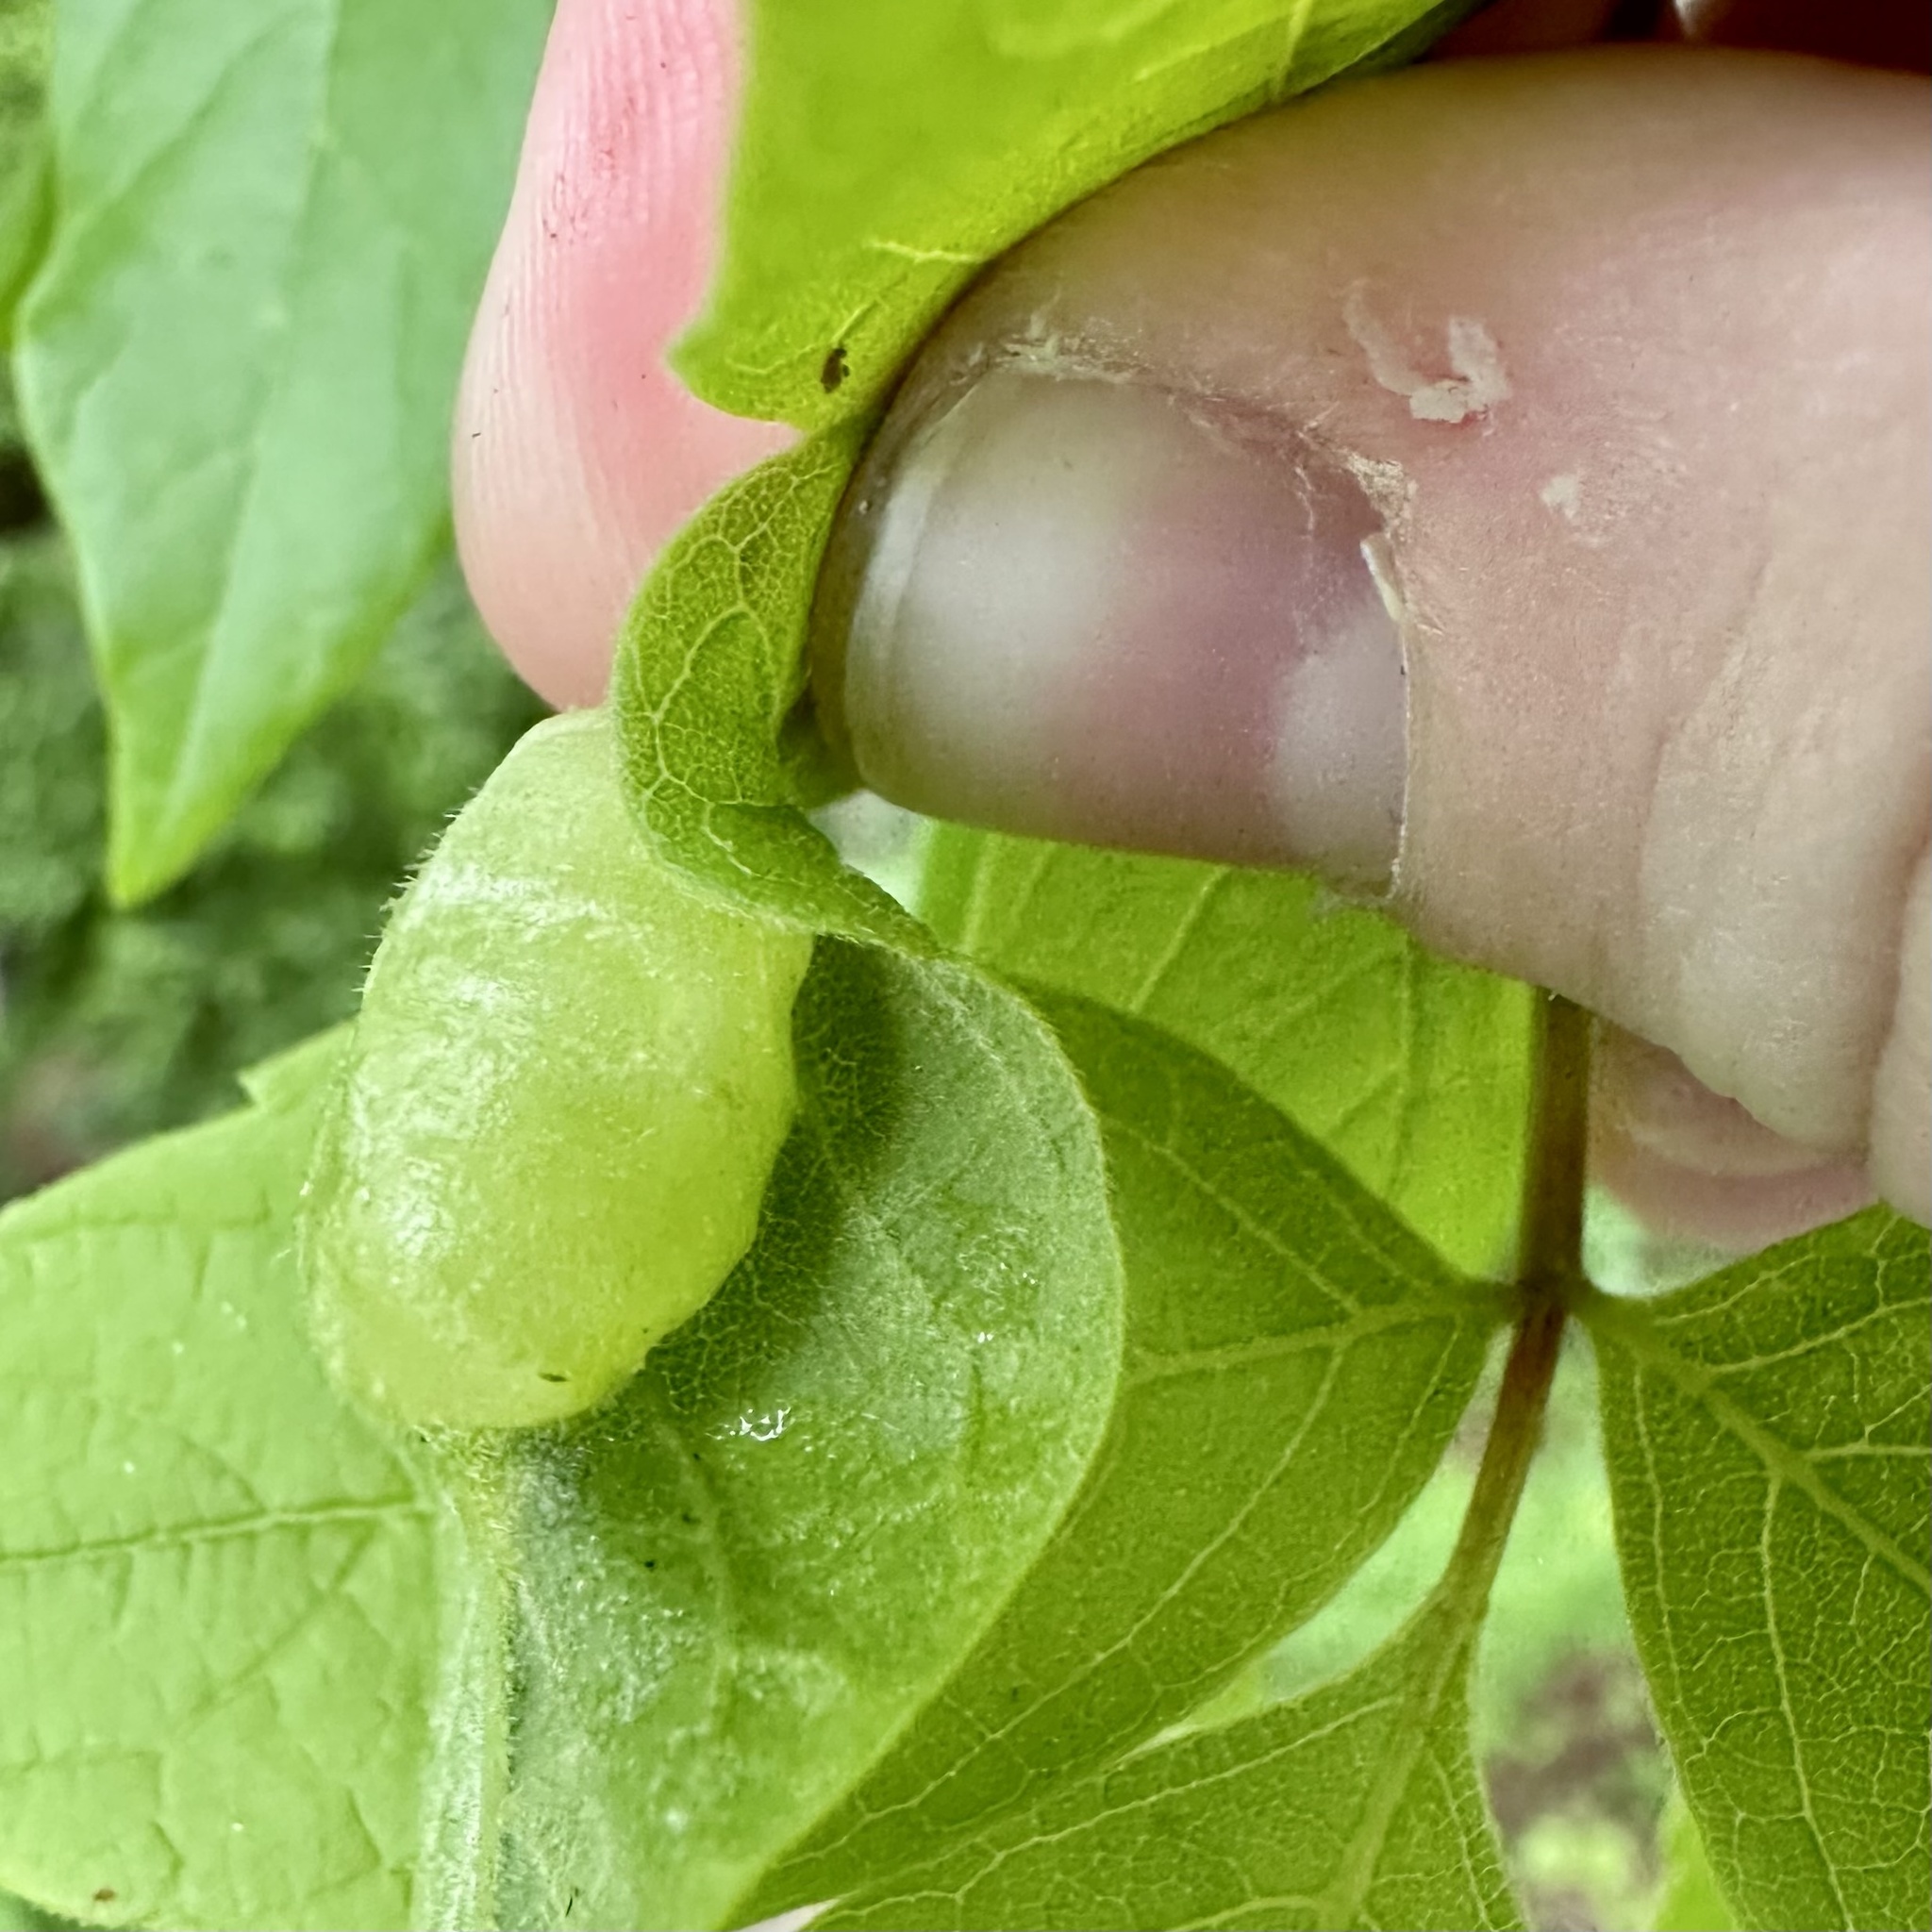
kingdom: Animalia
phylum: Arthropoda
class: Insecta
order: Diptera
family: Cecidomyiidae
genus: Contarinia
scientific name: Contarinia negundinis
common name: Boxelder budgall midge
